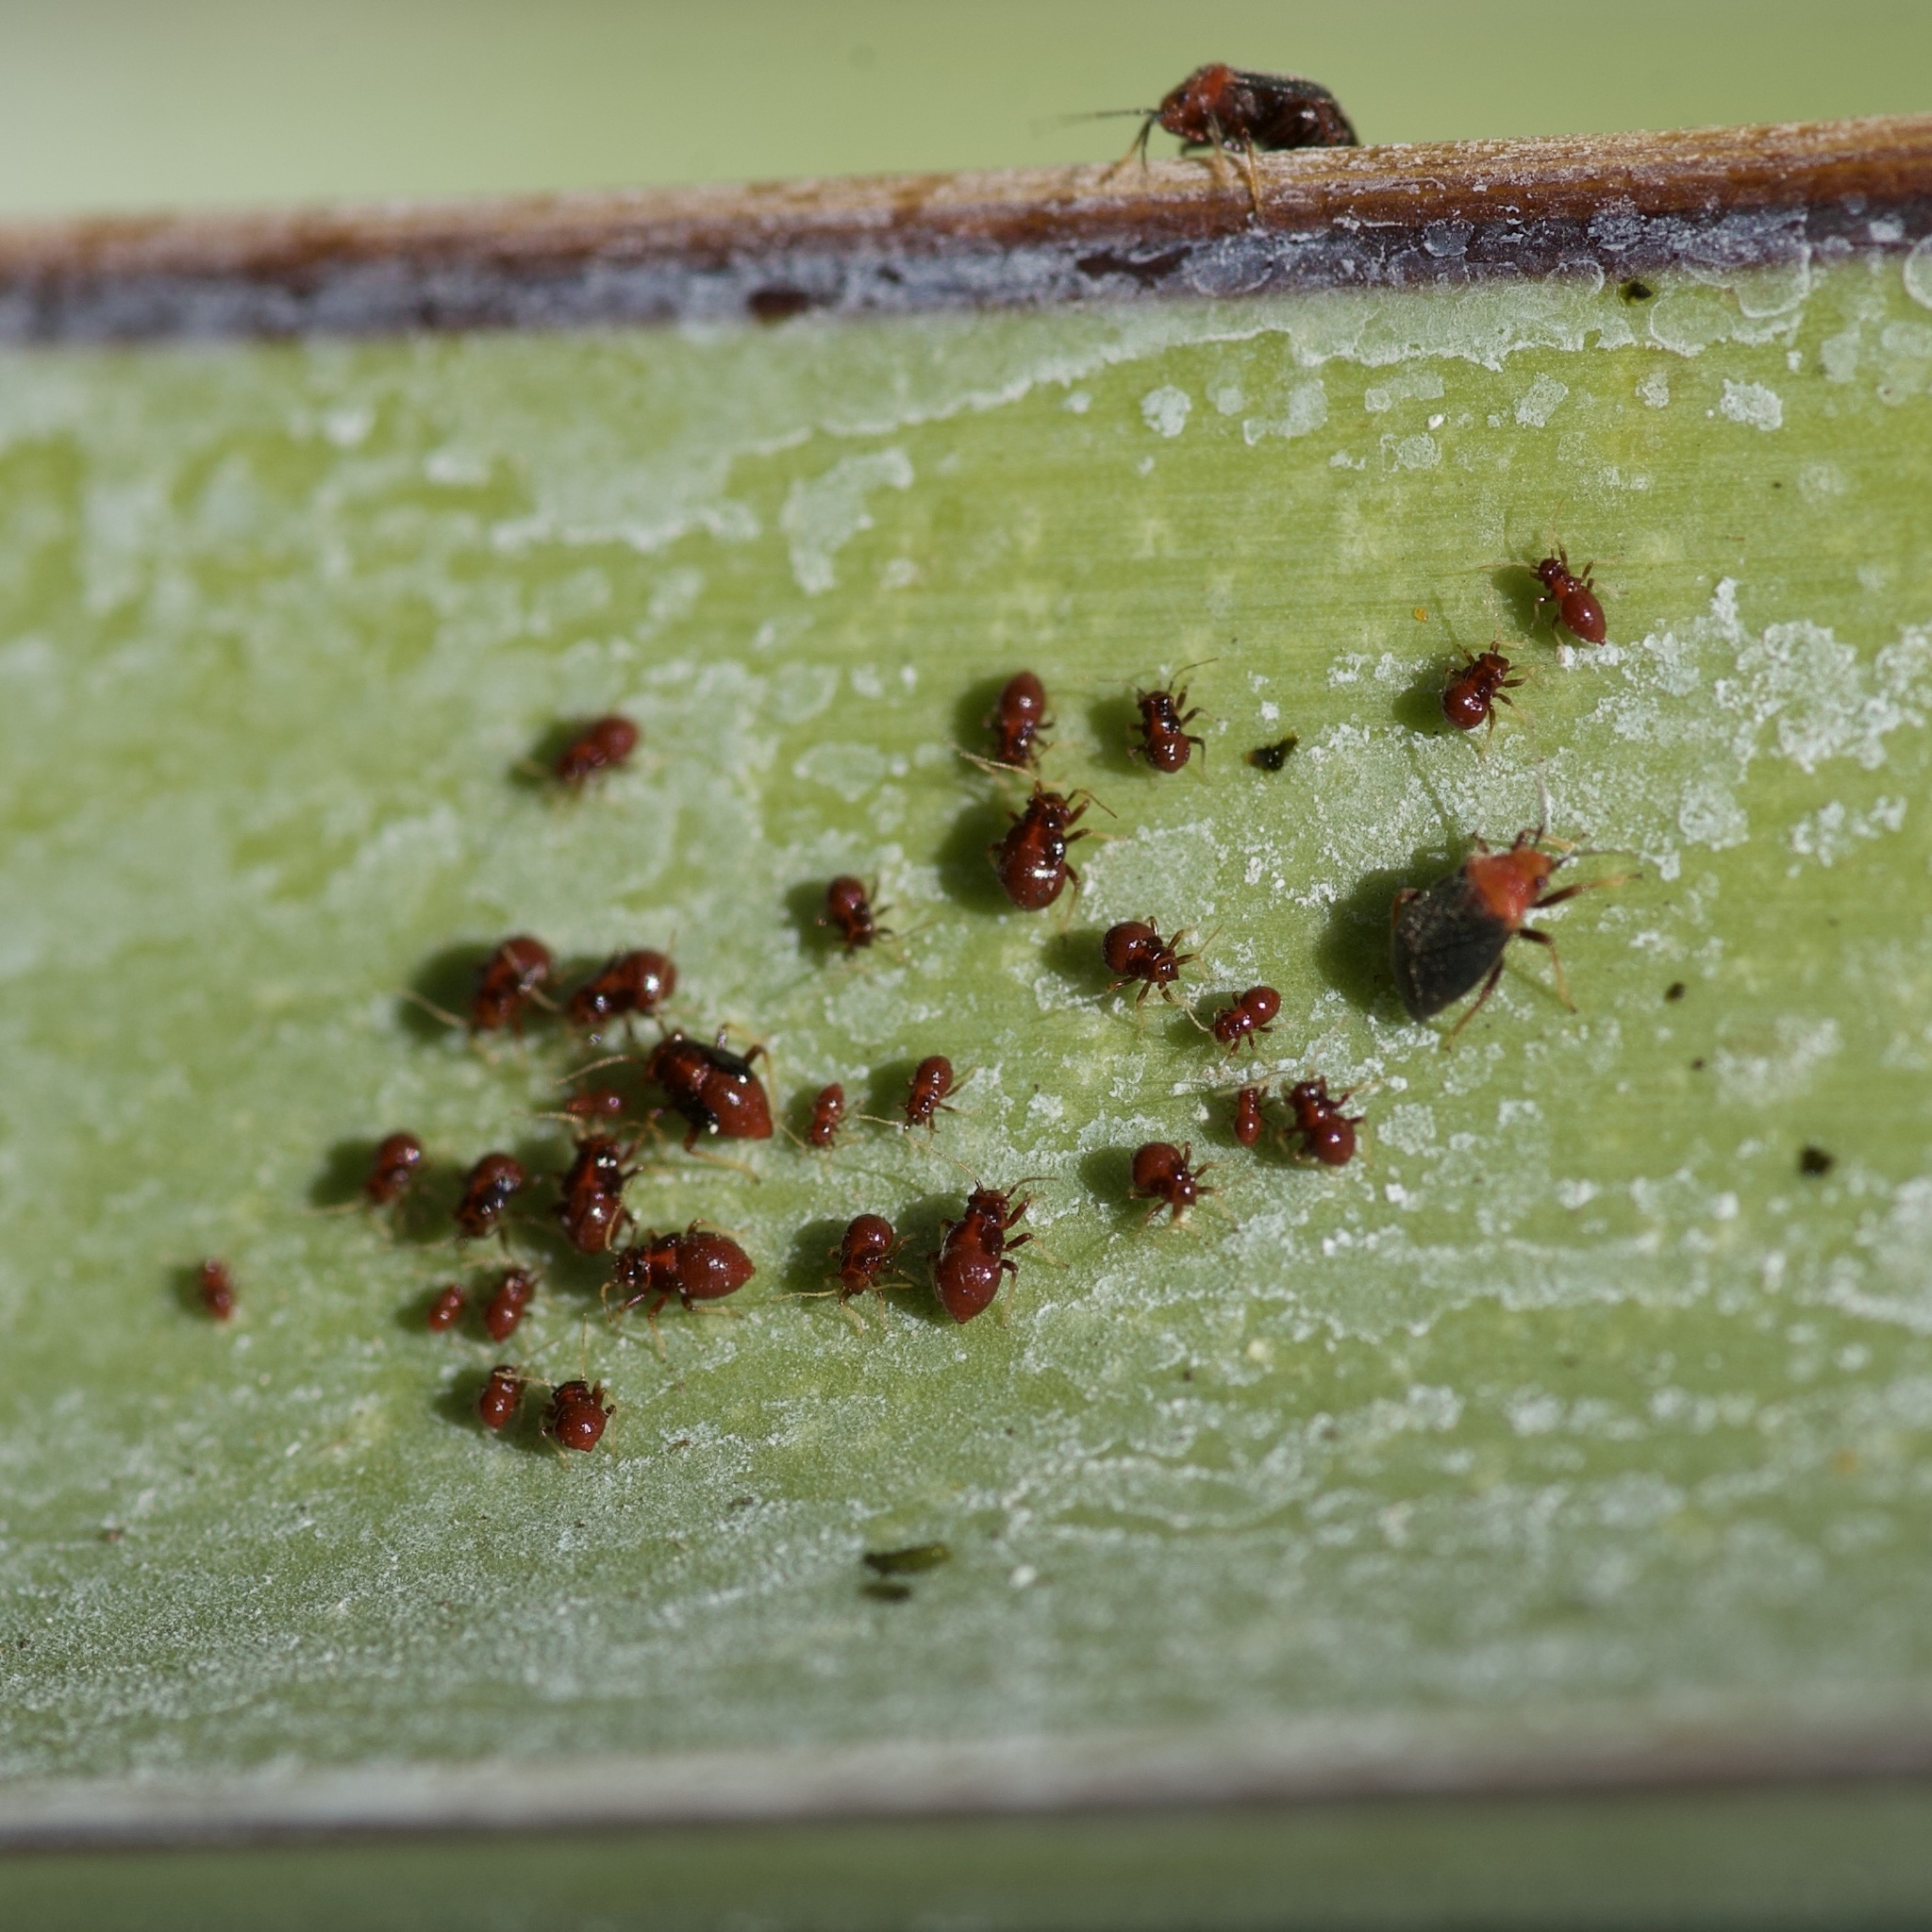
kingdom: Animalia
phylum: Arthropoda
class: Insecta
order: Hemiptera
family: Miridae
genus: Halticotoma
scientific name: Halticotoma valida
